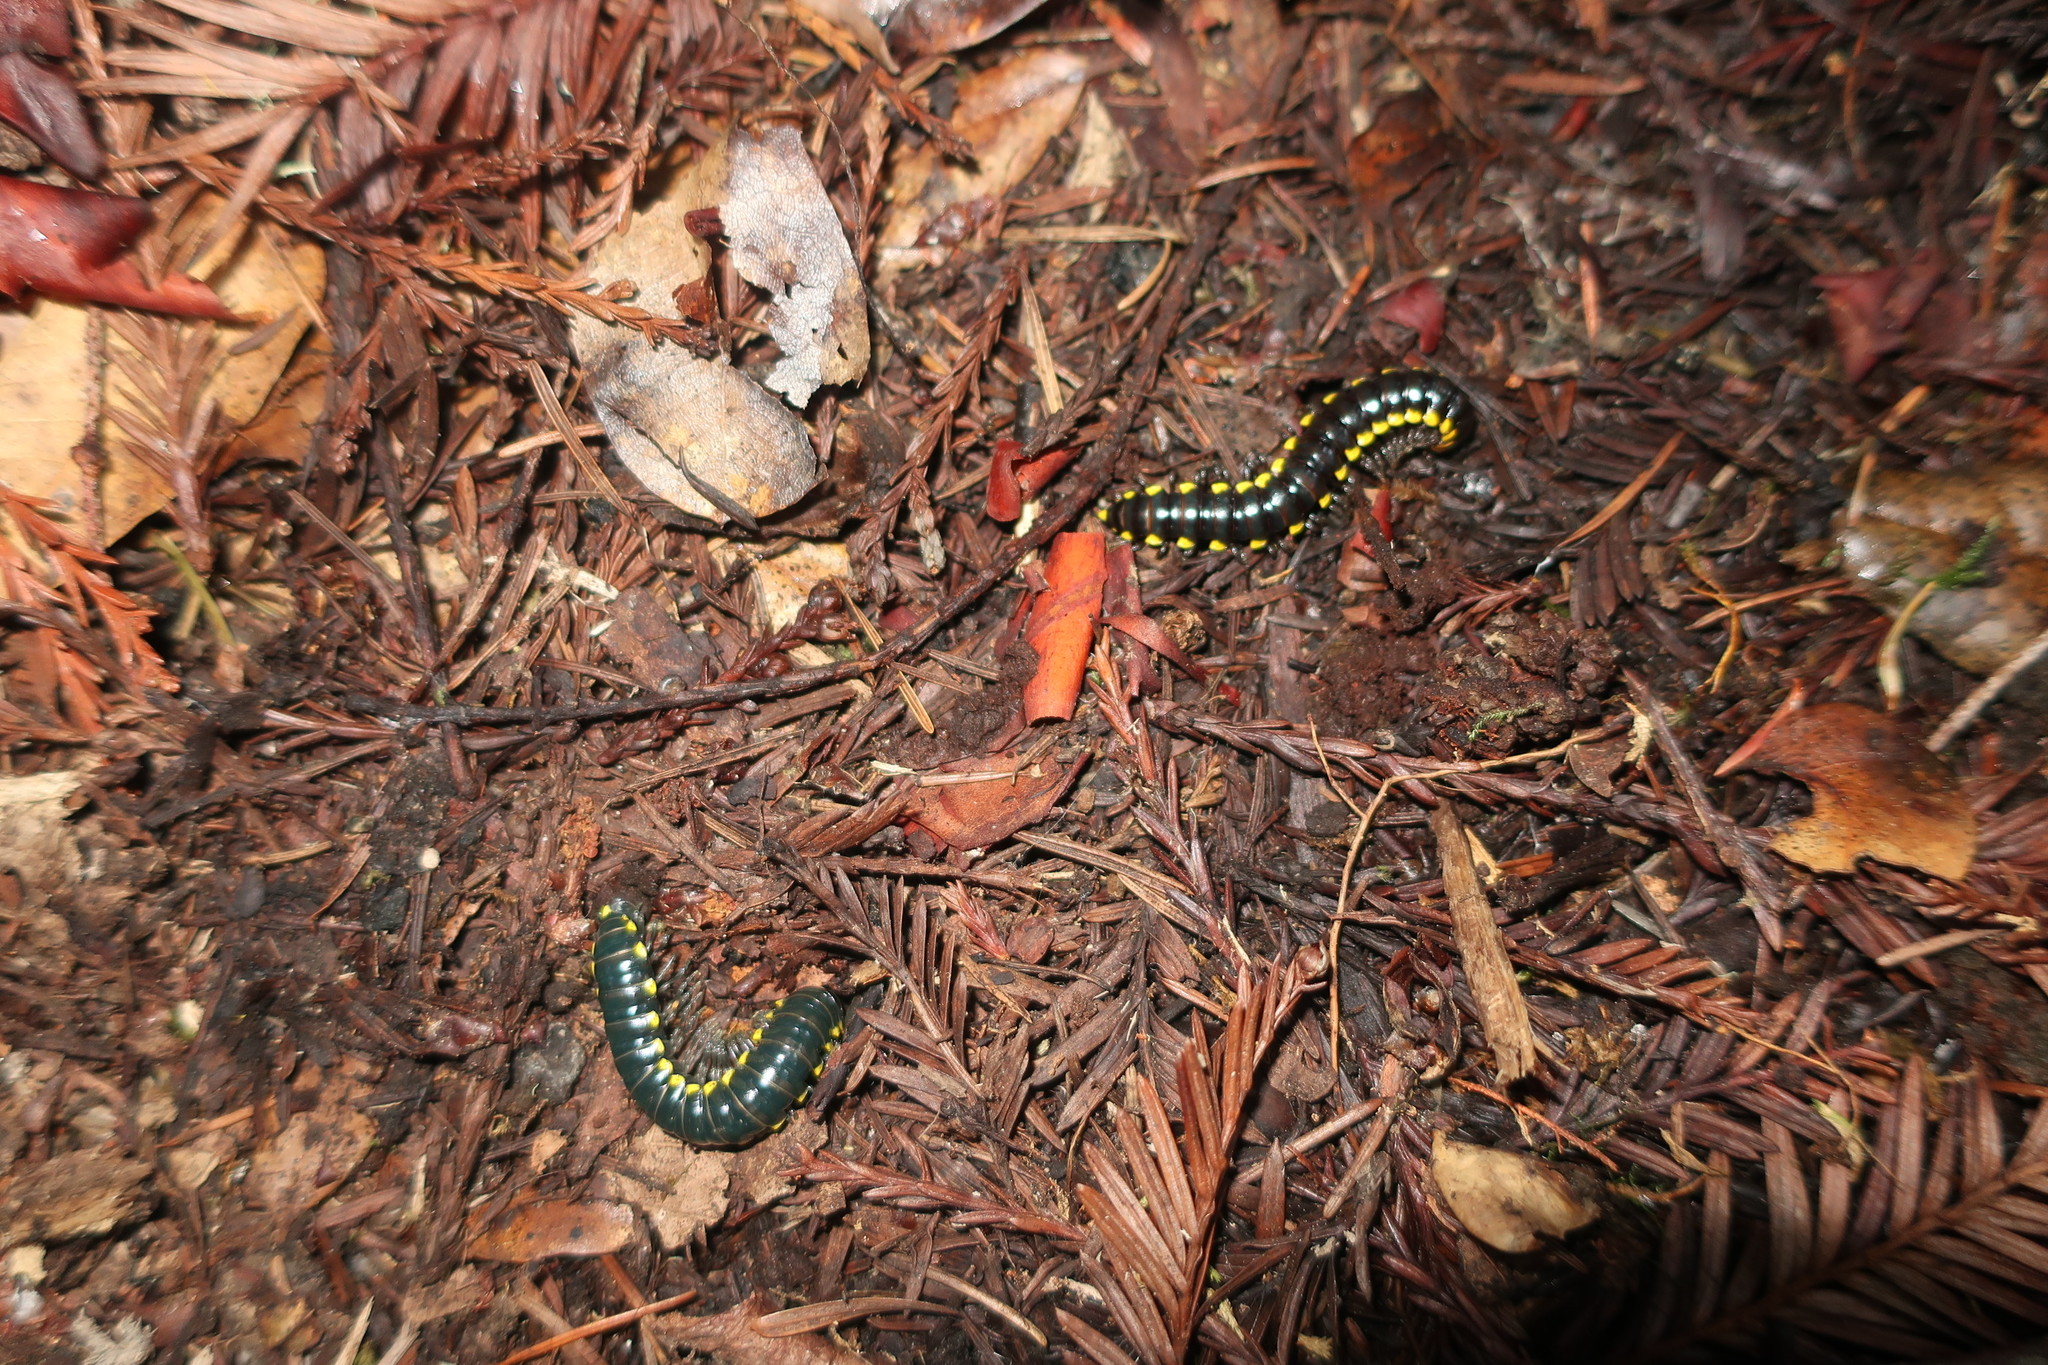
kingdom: Animalia
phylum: Arthropoda
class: Diplopoda
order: Polydesmida
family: Xystodesmidae
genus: Harpaphe
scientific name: Harpaphe haydeniana
